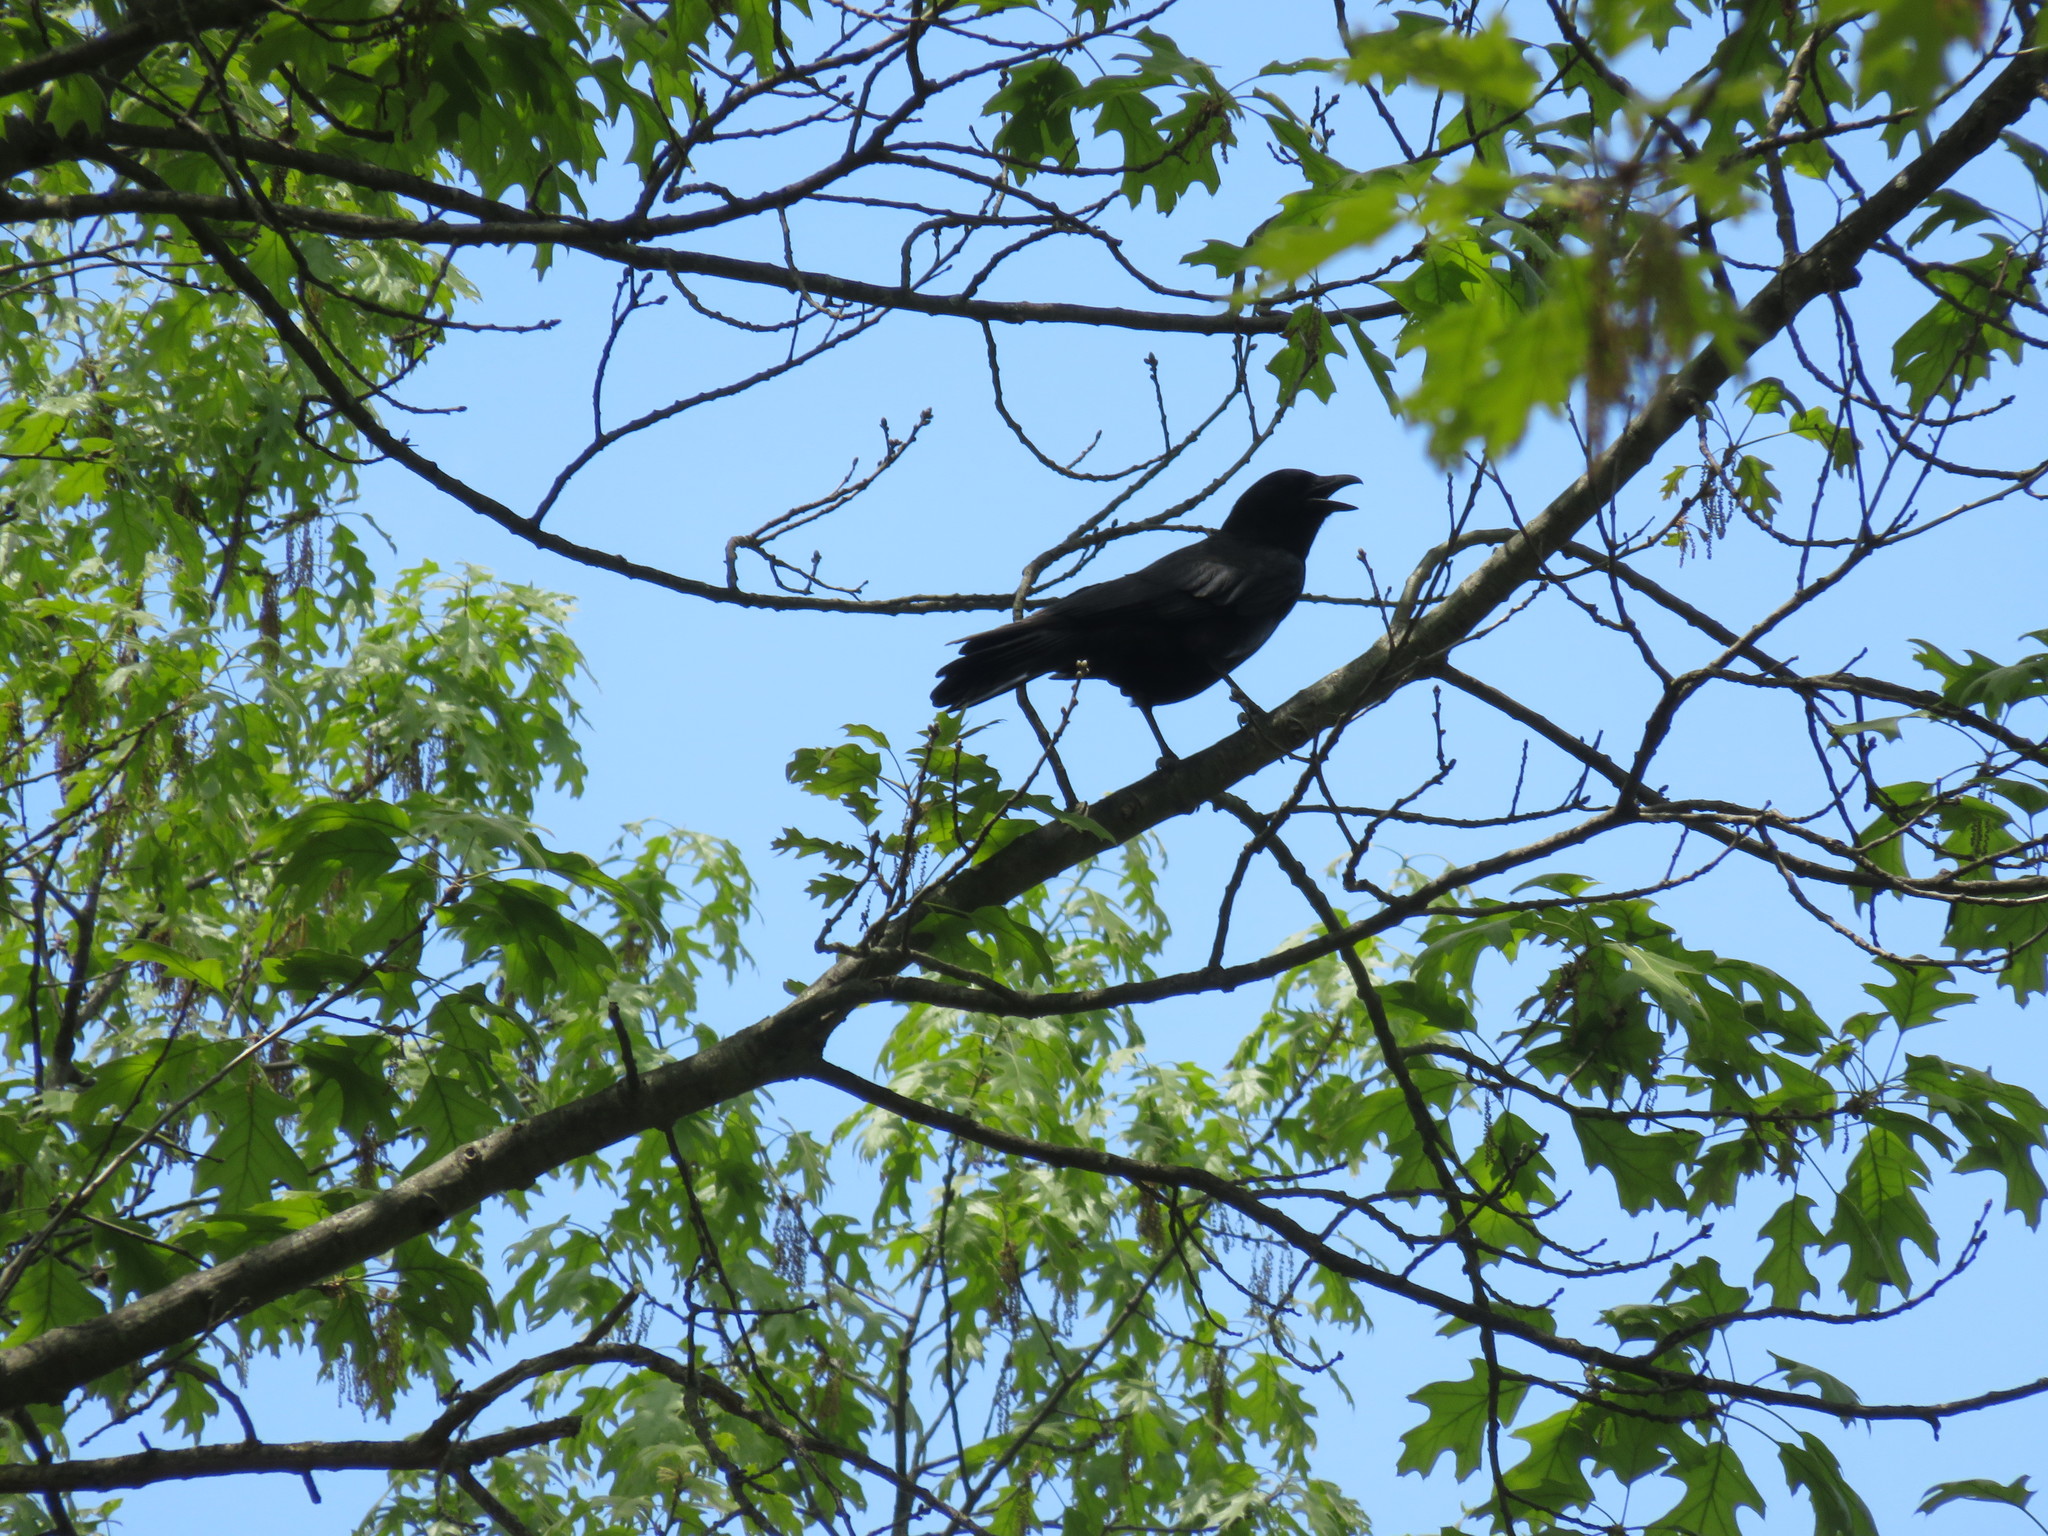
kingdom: Animalia
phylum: Chordata
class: Aves
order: Passeriformes
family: Corvidae
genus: Corvus
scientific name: Corvus brachyrhynchos
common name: American crow
